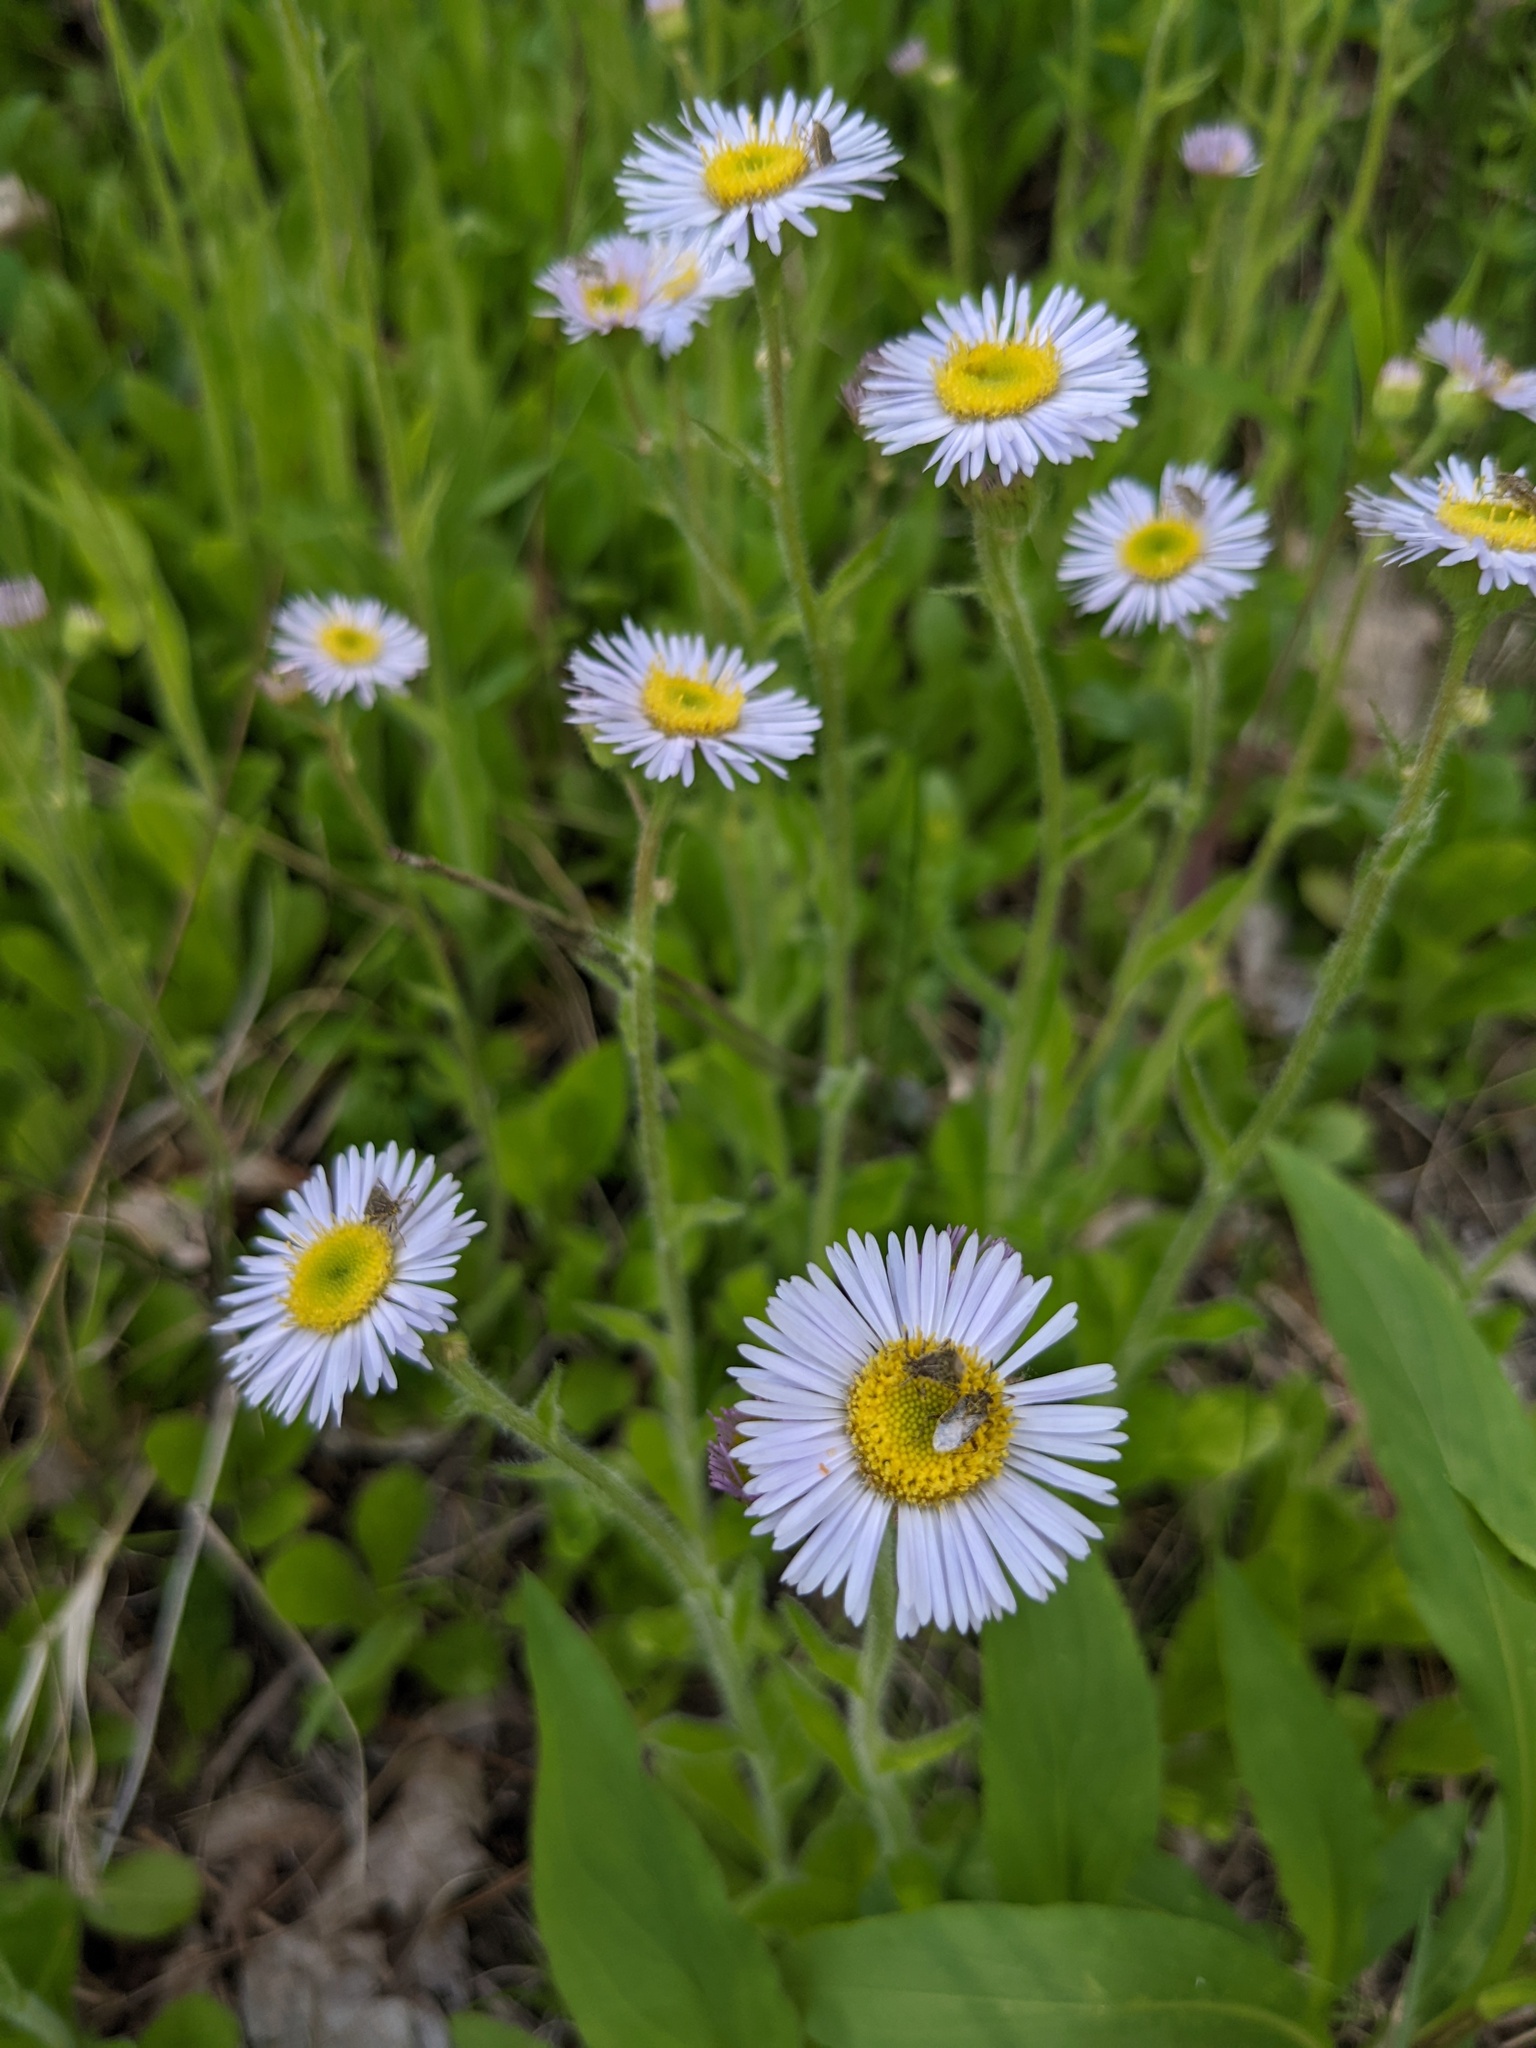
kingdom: Plantae
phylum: Tracheophyta
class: Magnoliopsida
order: Asterales
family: Asteraceae
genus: Erigeron
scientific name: Erigeron pulchellus
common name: Hairy fleabane
